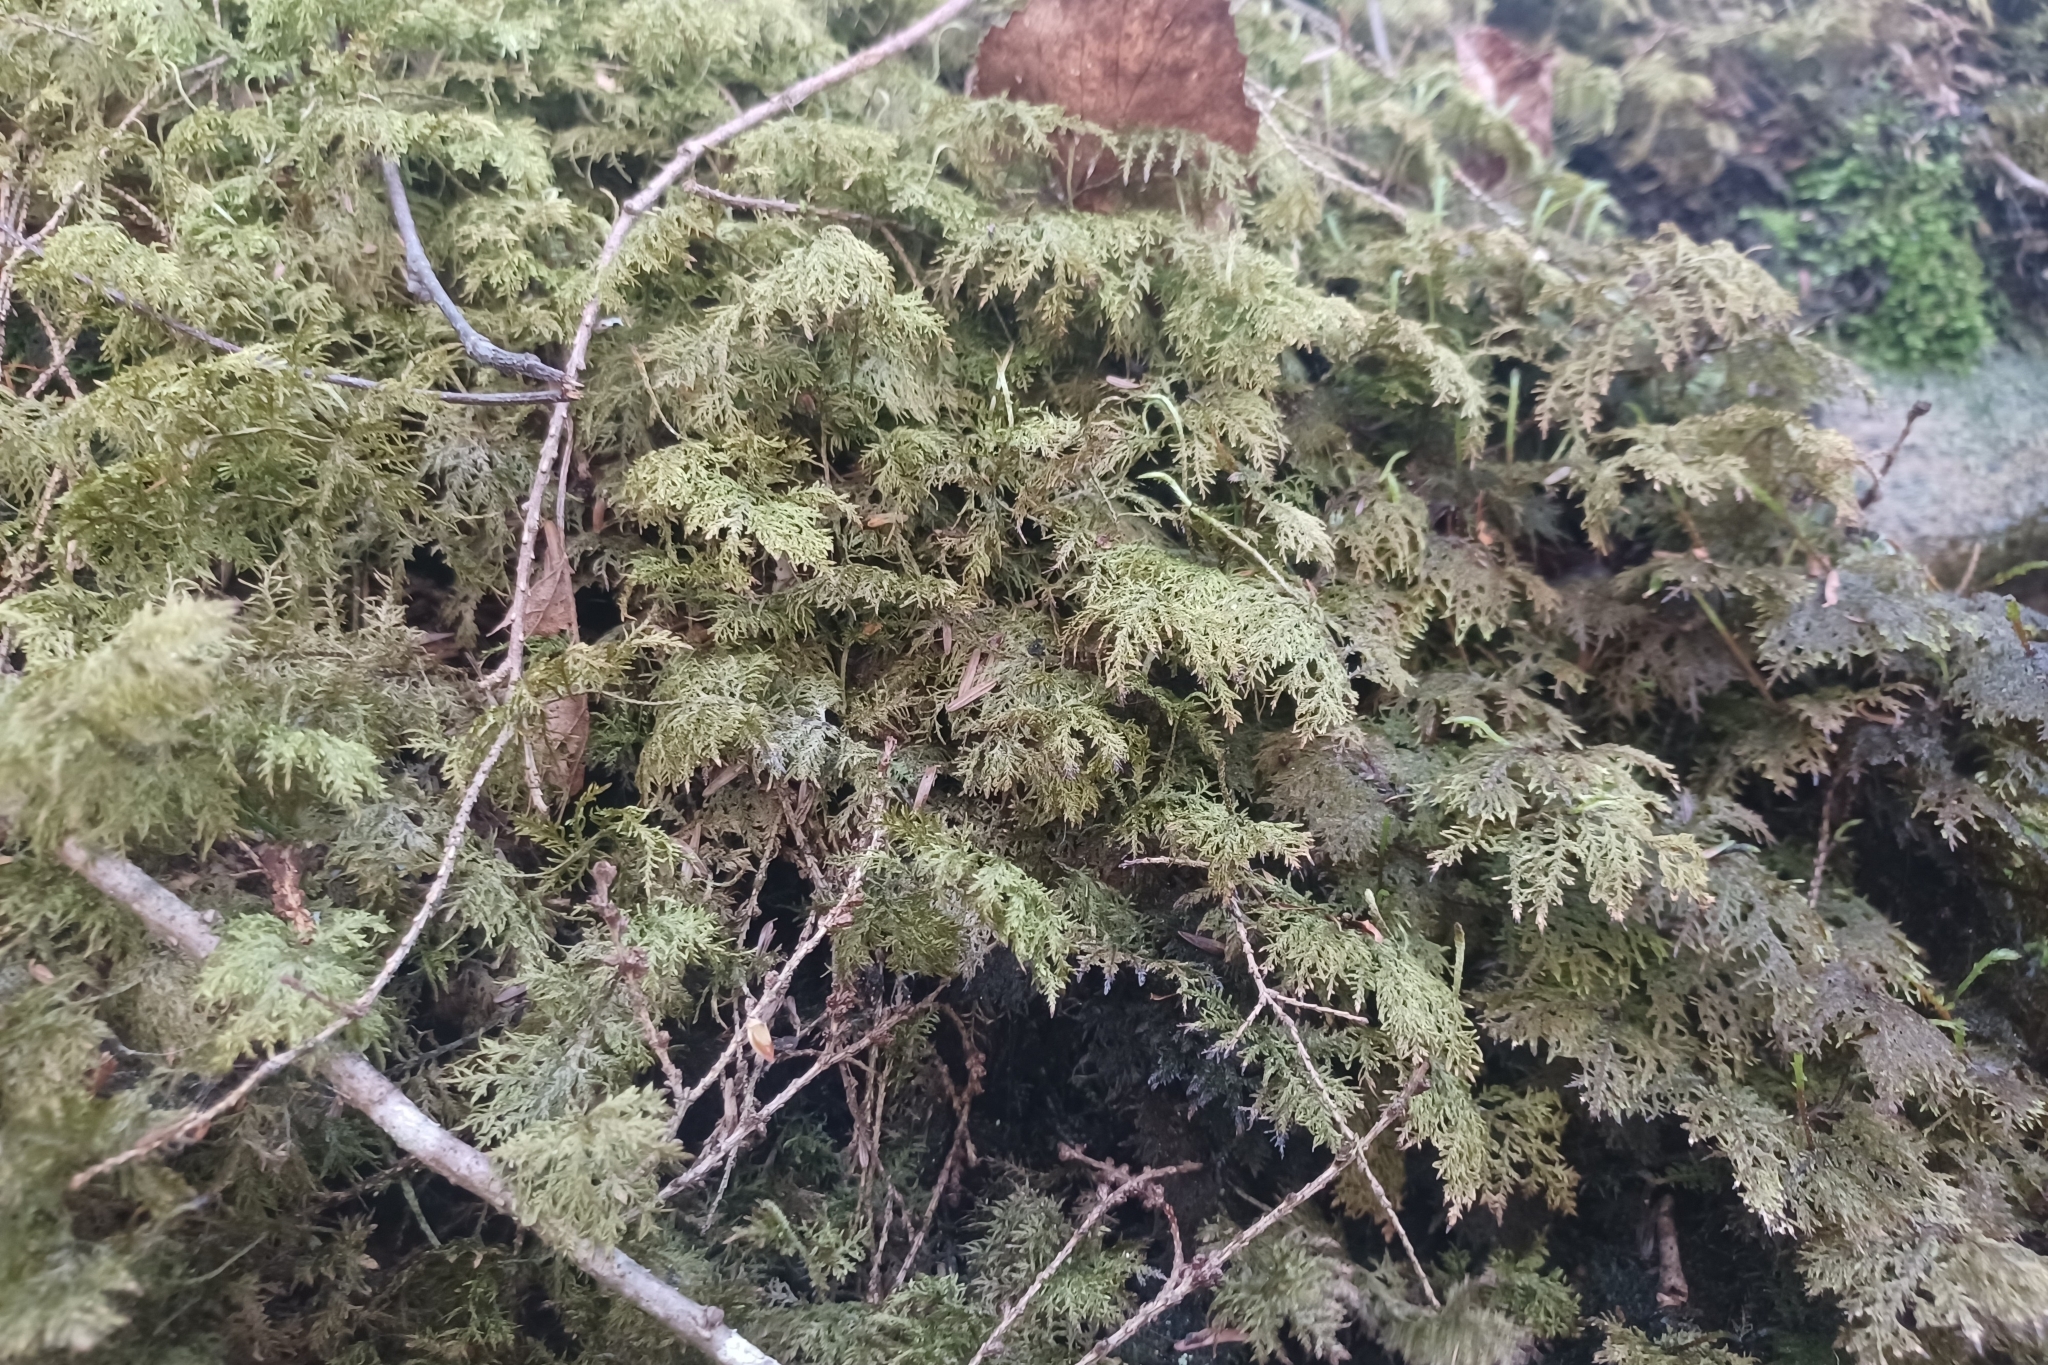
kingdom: Plantae
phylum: Bryophyta
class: Bryopsida
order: Hypnales
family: Hylocomiaceae
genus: Hylocomium
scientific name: Hylocomium splendens
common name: Stairstep moss
